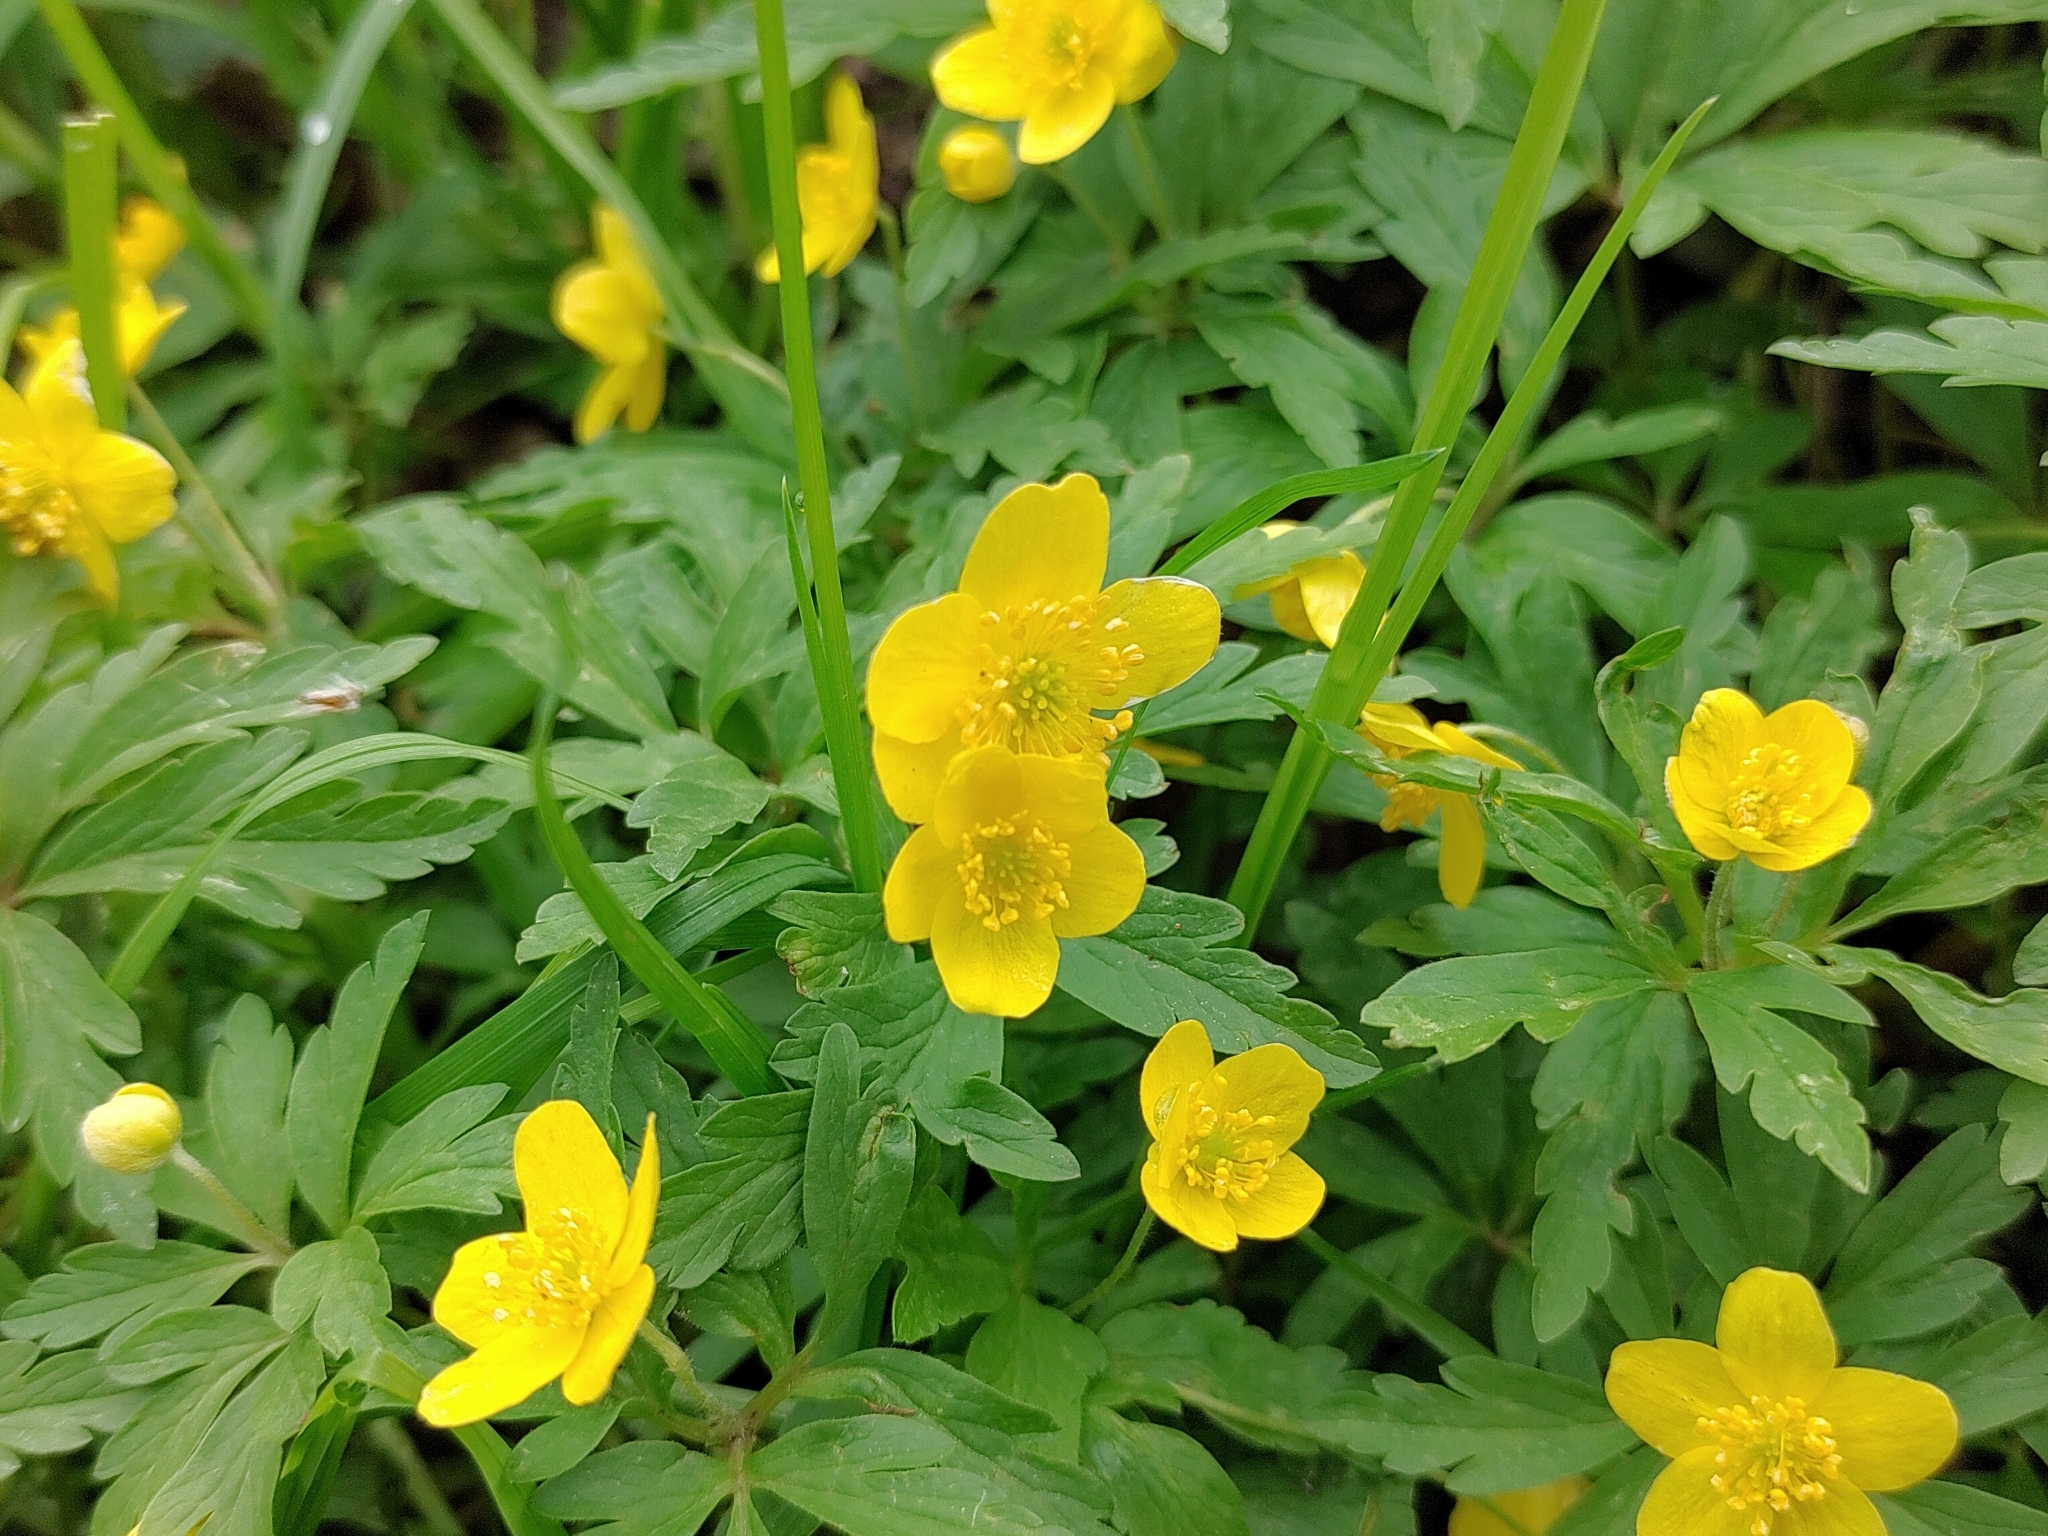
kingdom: Plantae
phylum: Tracheophyta
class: Magnoliopsida
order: Ranunculales
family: Ranunculaceae
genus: Anemone
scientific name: Anemone ranunculoides
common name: Yellow anemone
